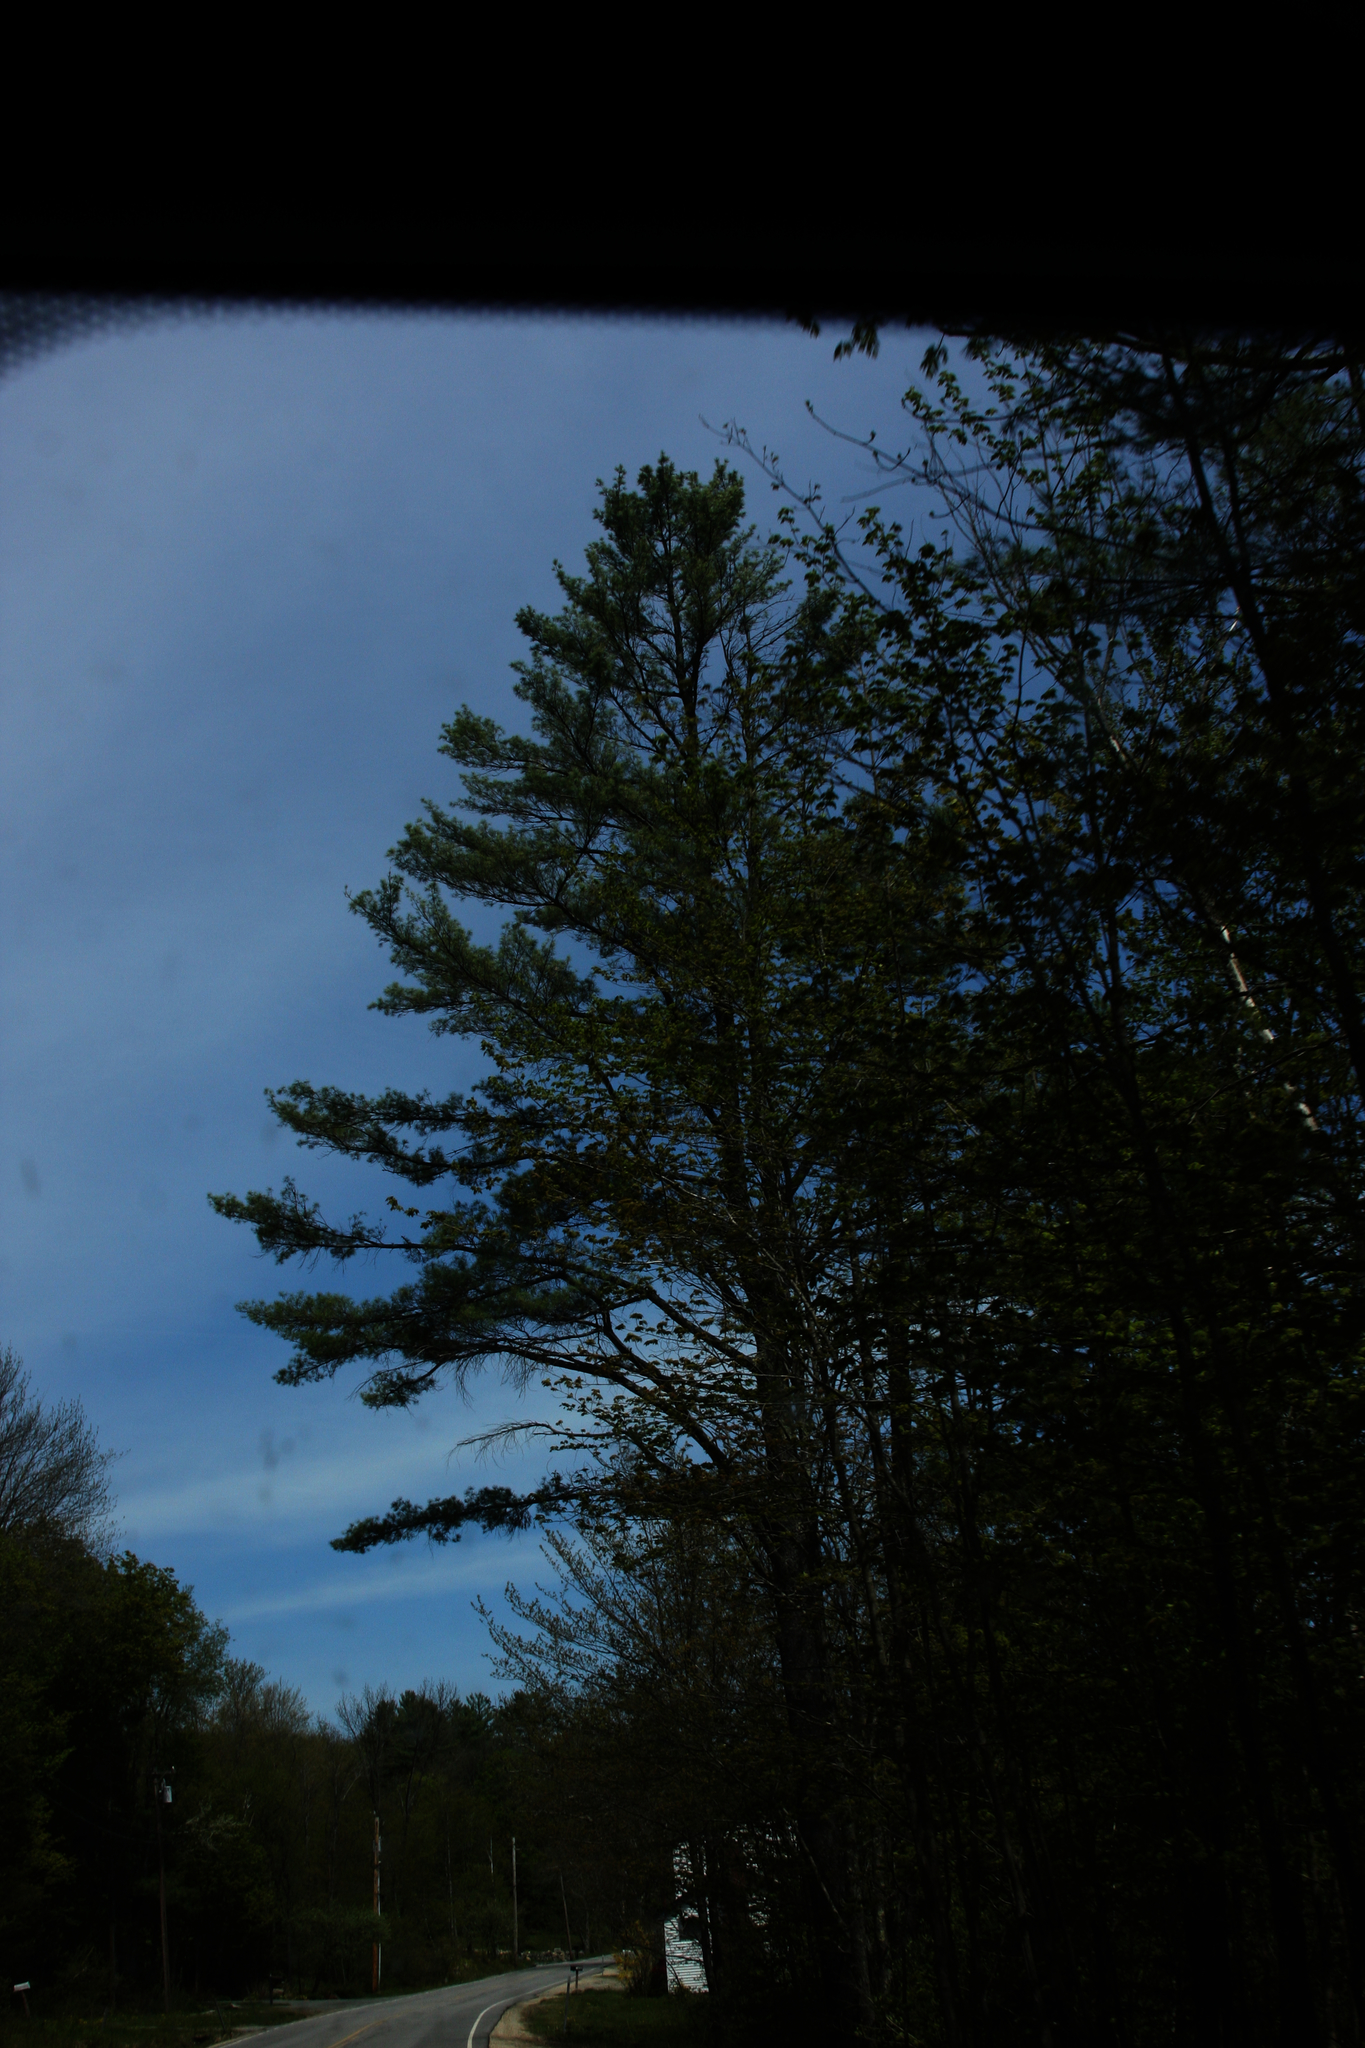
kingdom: Plantae
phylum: Tracheophyta
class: Pinopsida
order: Pinales
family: Pinaceae
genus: Pinus
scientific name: Pinus strobus
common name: Weymouth pine
